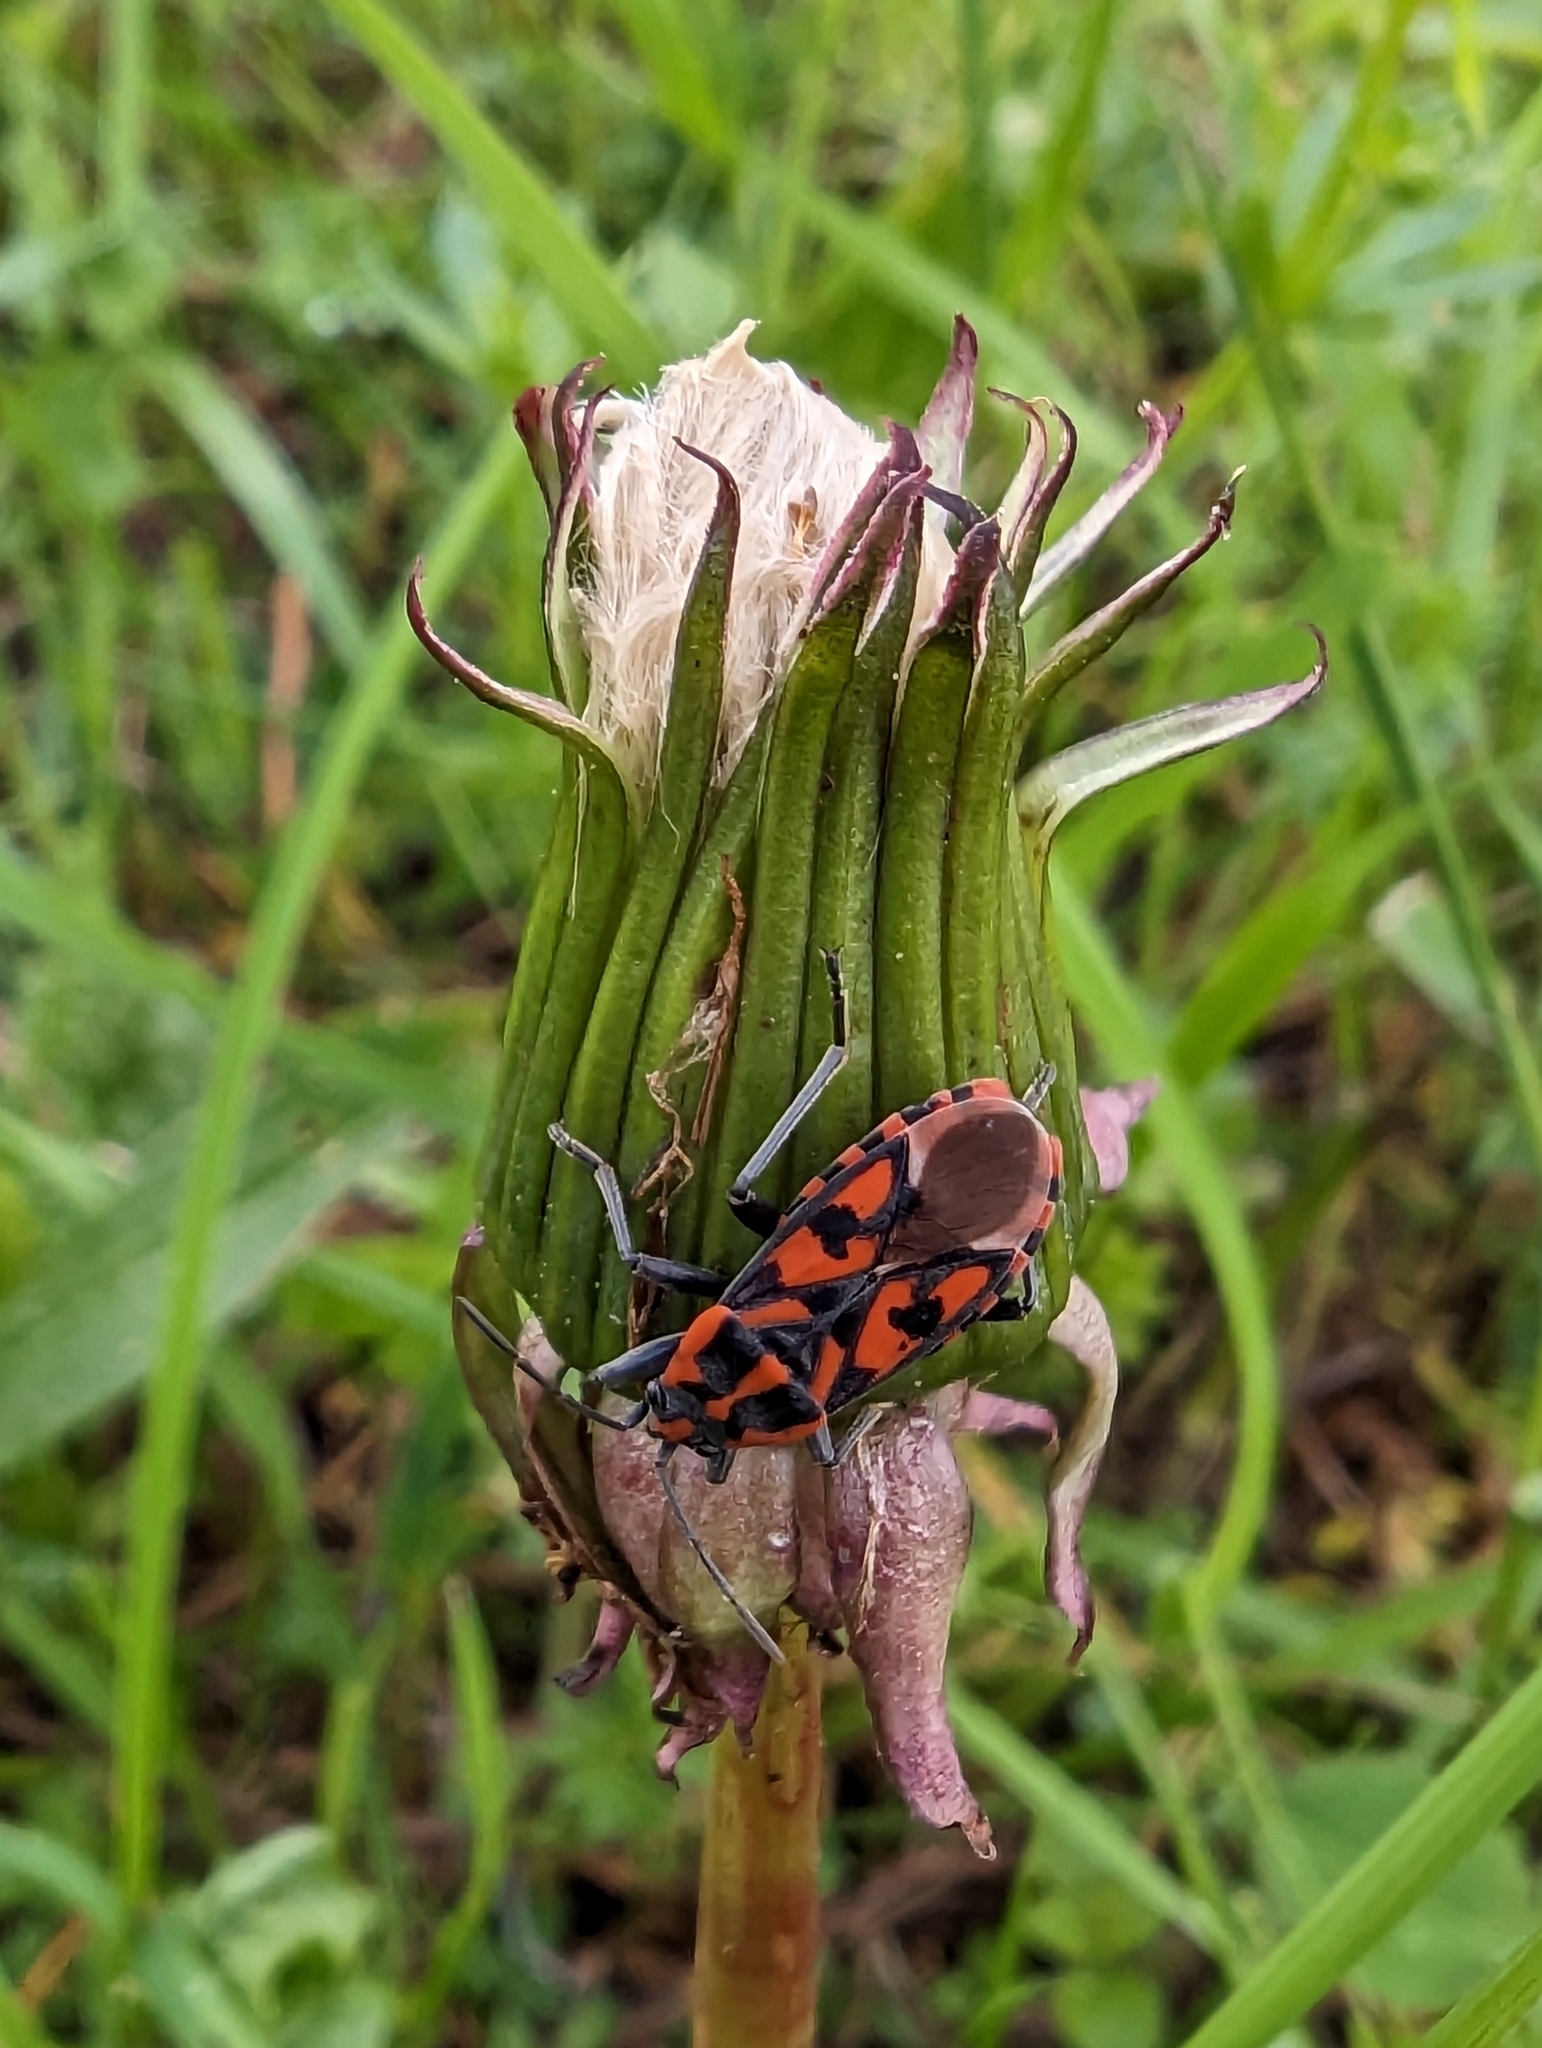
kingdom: Animalia
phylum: Arthropoda
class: Insecta
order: Hemiptera
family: Lygaeidae
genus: Spilostethus
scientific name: Spilostethus saxatilis
